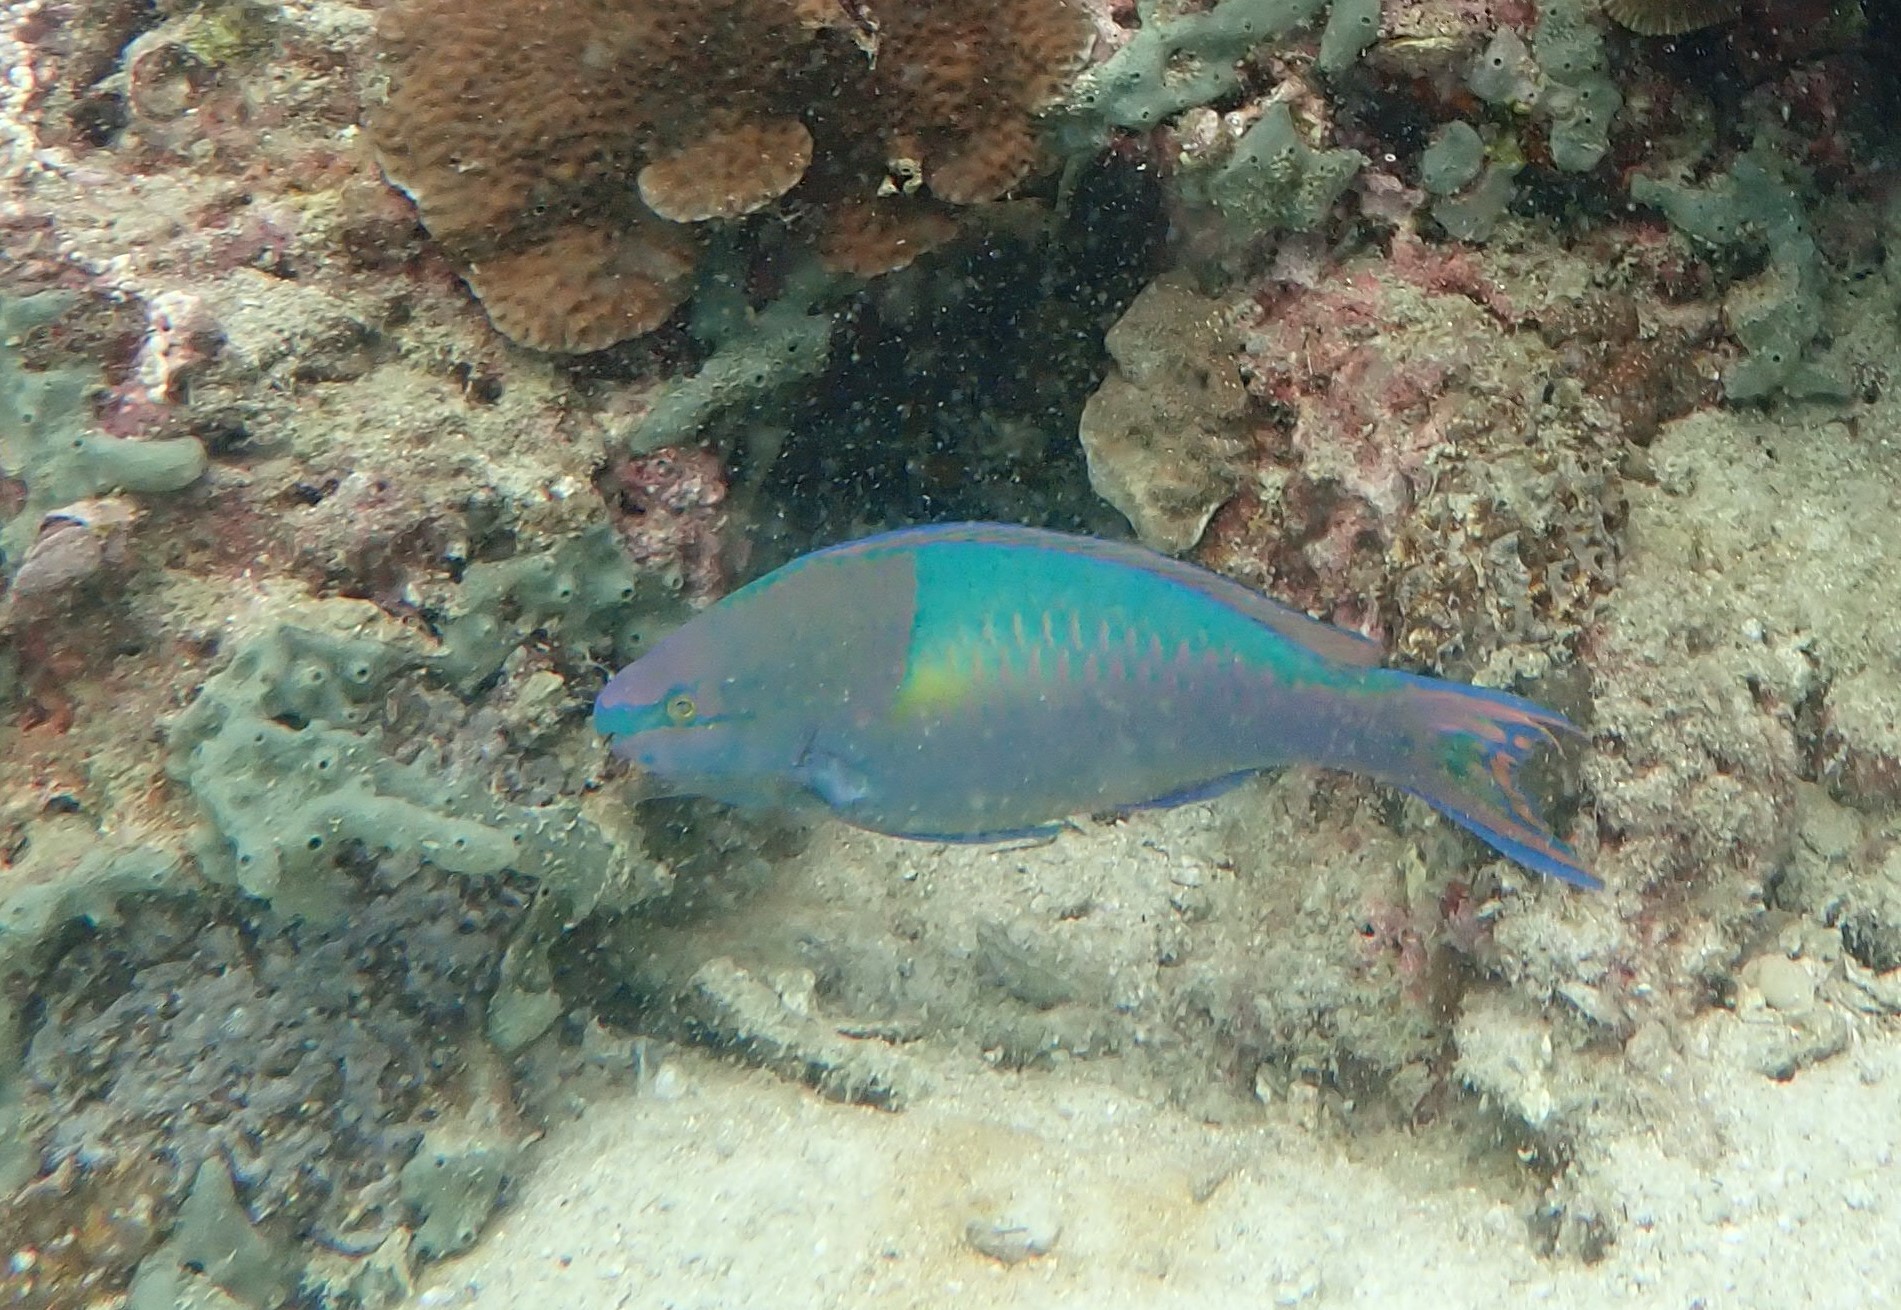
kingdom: Animalia
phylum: Chordata
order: Perciformes
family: Scaridae
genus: Scarus
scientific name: Scarus flavipectoralis
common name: Yellowfin parrotfish
